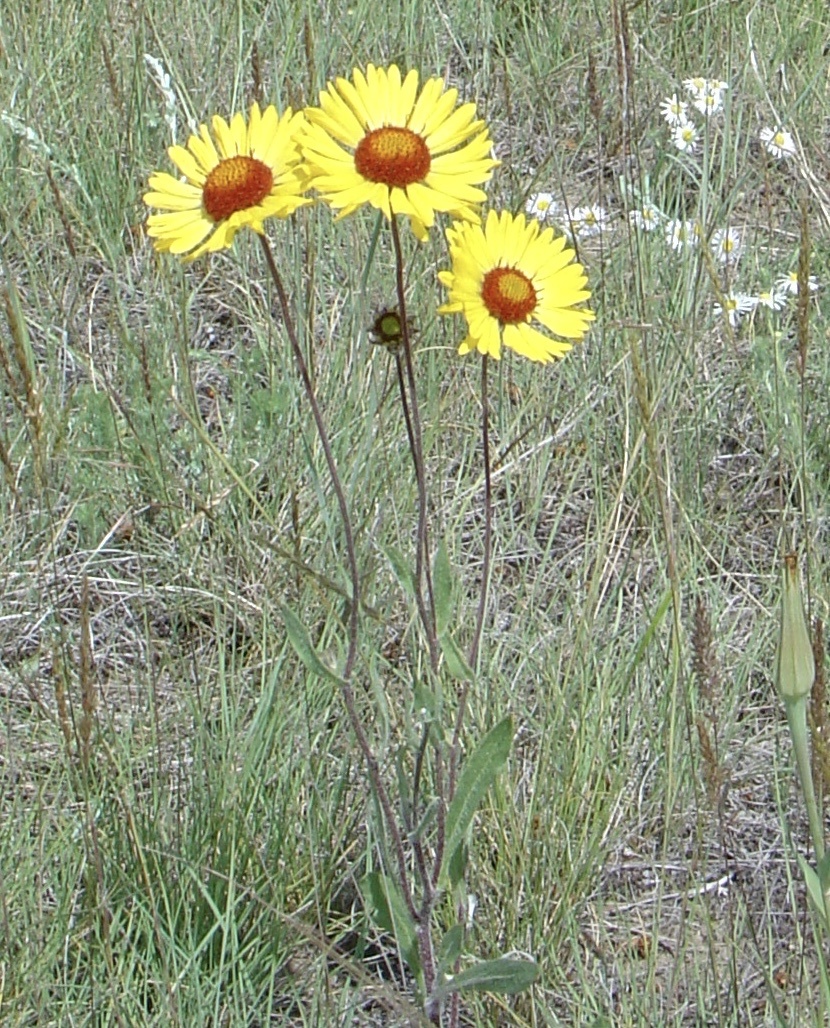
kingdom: Plantae
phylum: Tracheophyta
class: Magnoliopsida
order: Asterales
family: Asteraceae
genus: Gaillardia
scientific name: Gaillardia aristata
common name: Blanket-flower
